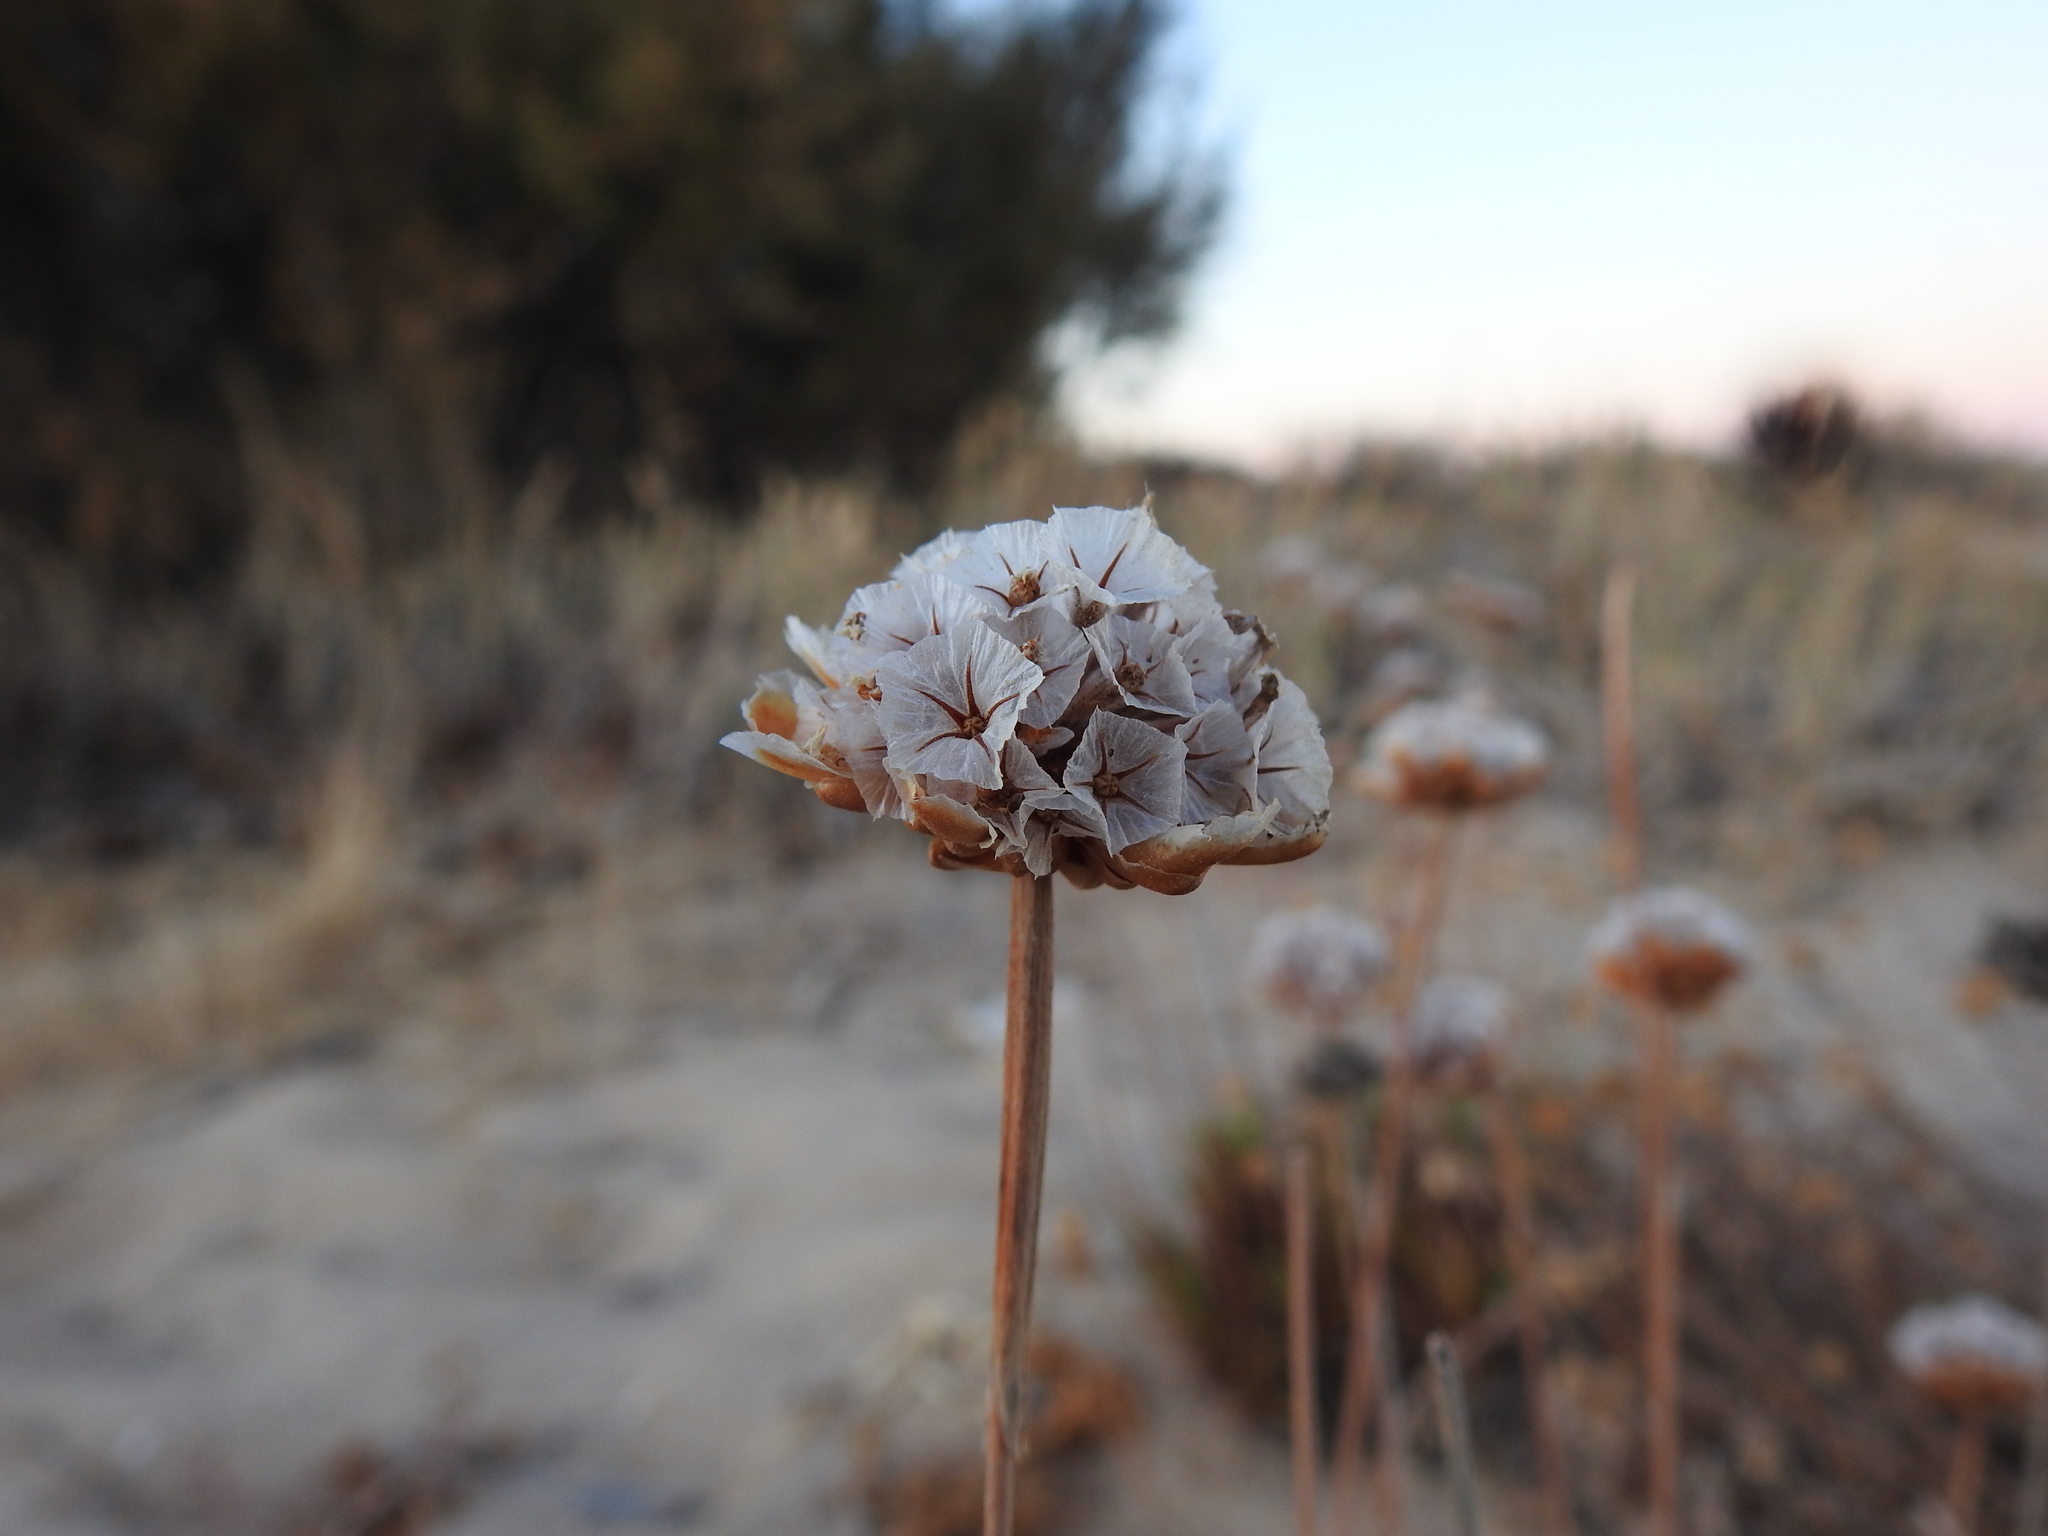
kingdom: Plantae
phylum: Tracheophyta
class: Magnoliopsida
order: Caryophyllales
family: Plumbaginaceae
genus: Armeria
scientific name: Armeria pungens
